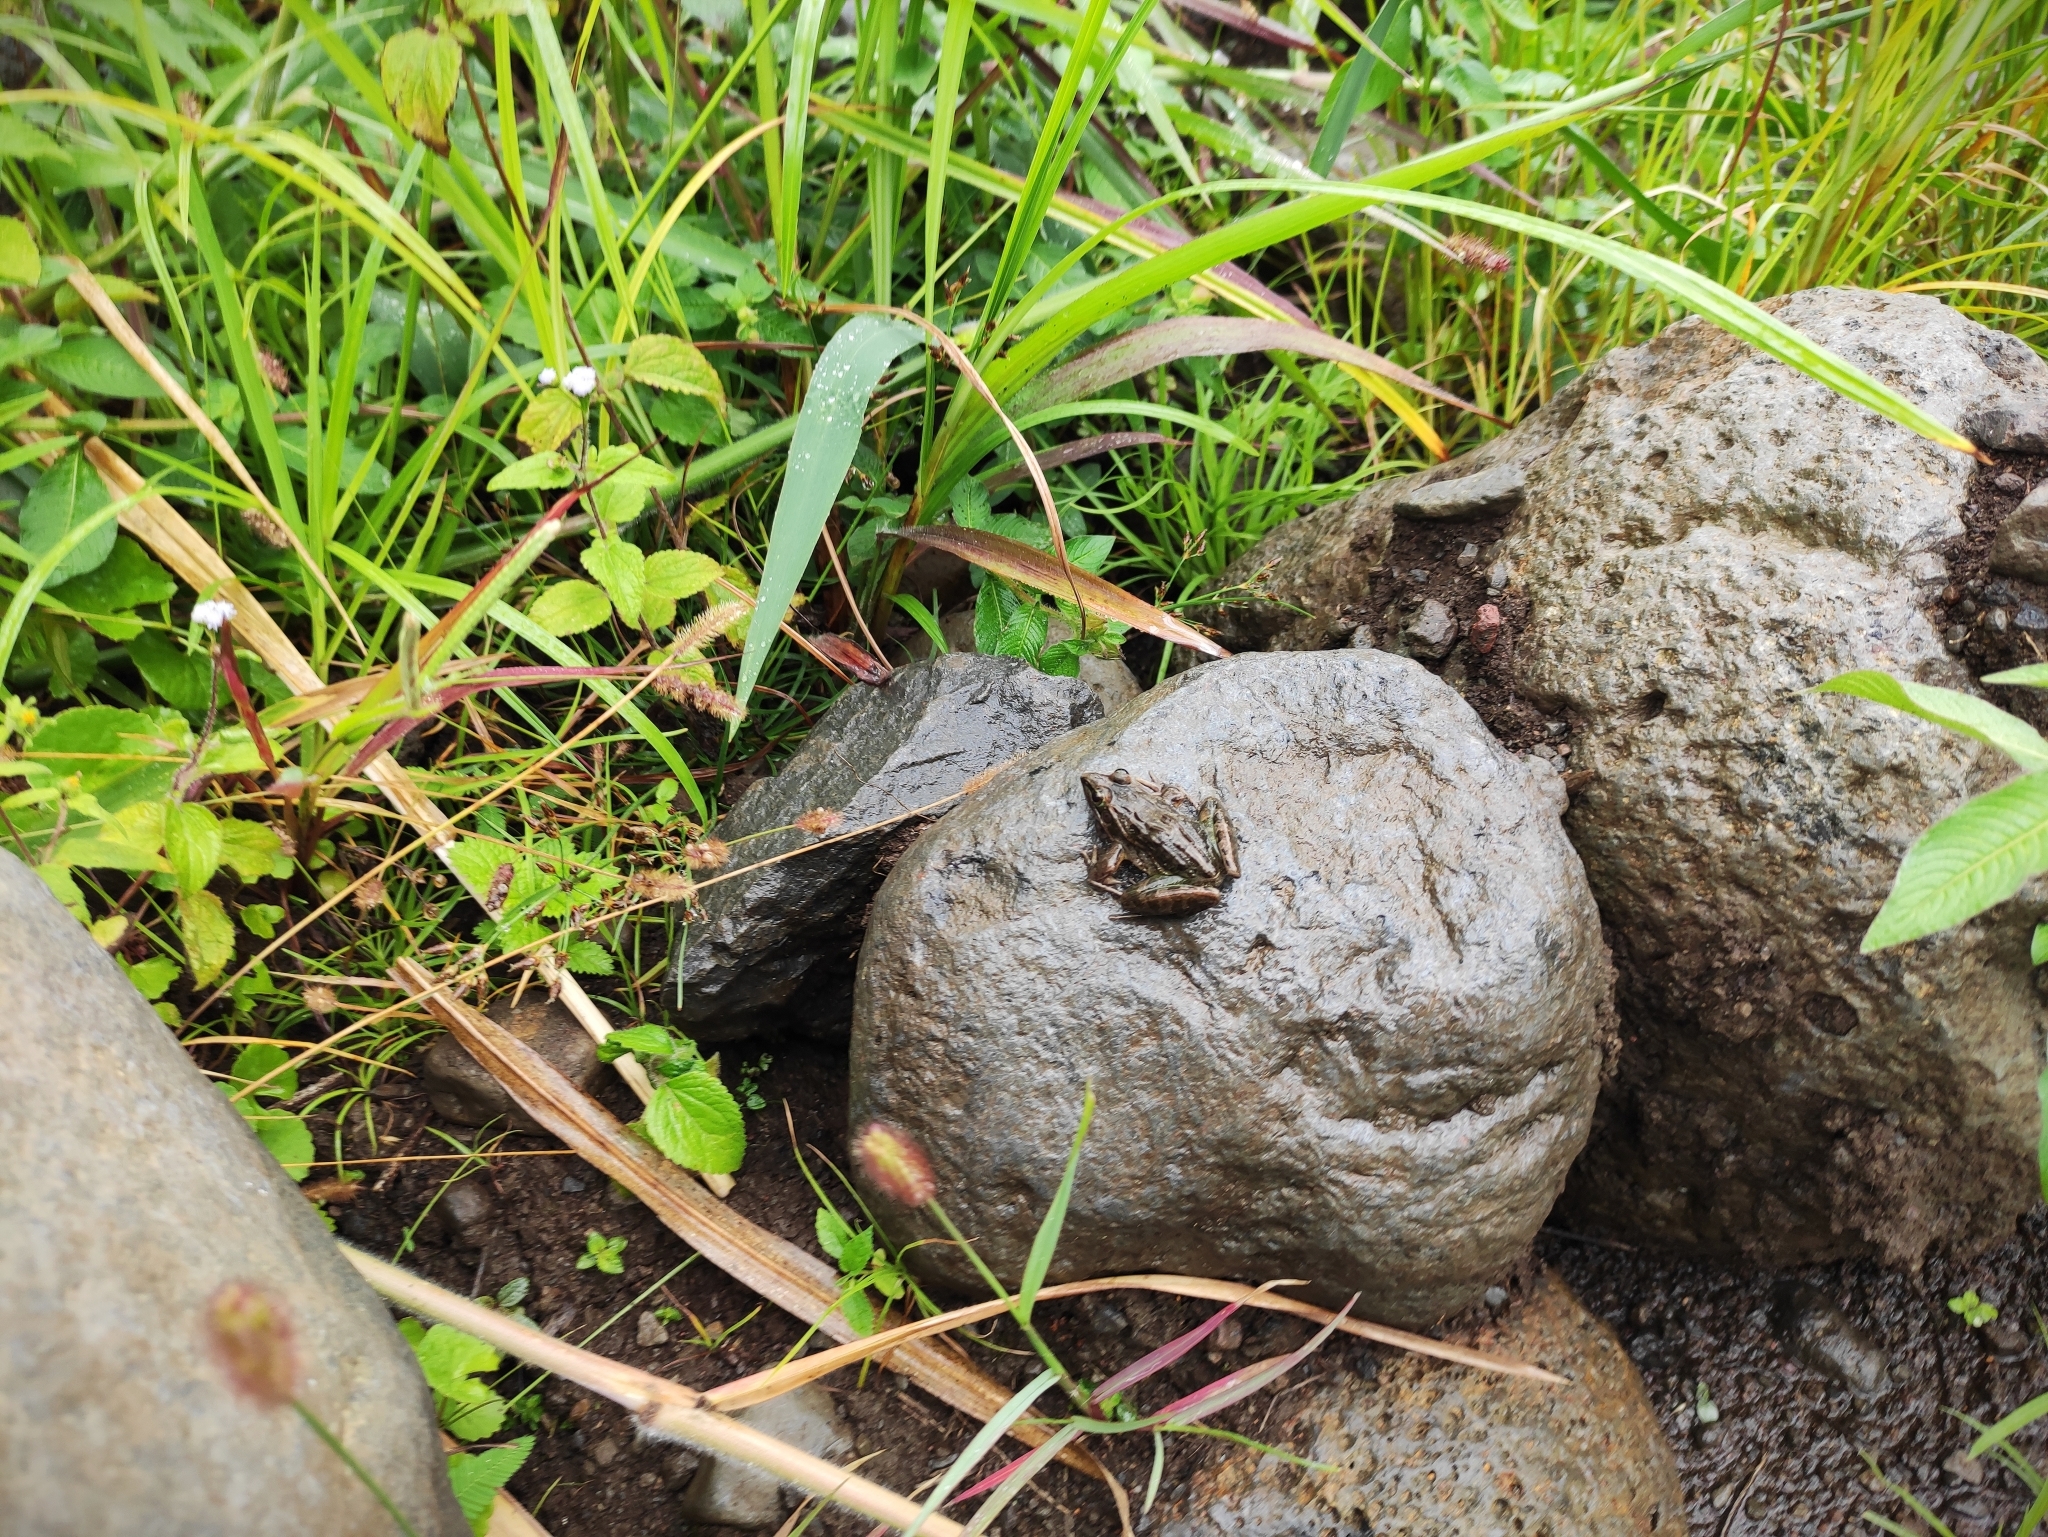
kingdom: Animalia
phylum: Chordata
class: Amphibia
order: Anura
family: Ptychadenidae
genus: Ptychadena
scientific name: Ptychadena mascareniensis
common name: Mascarene grass frog
